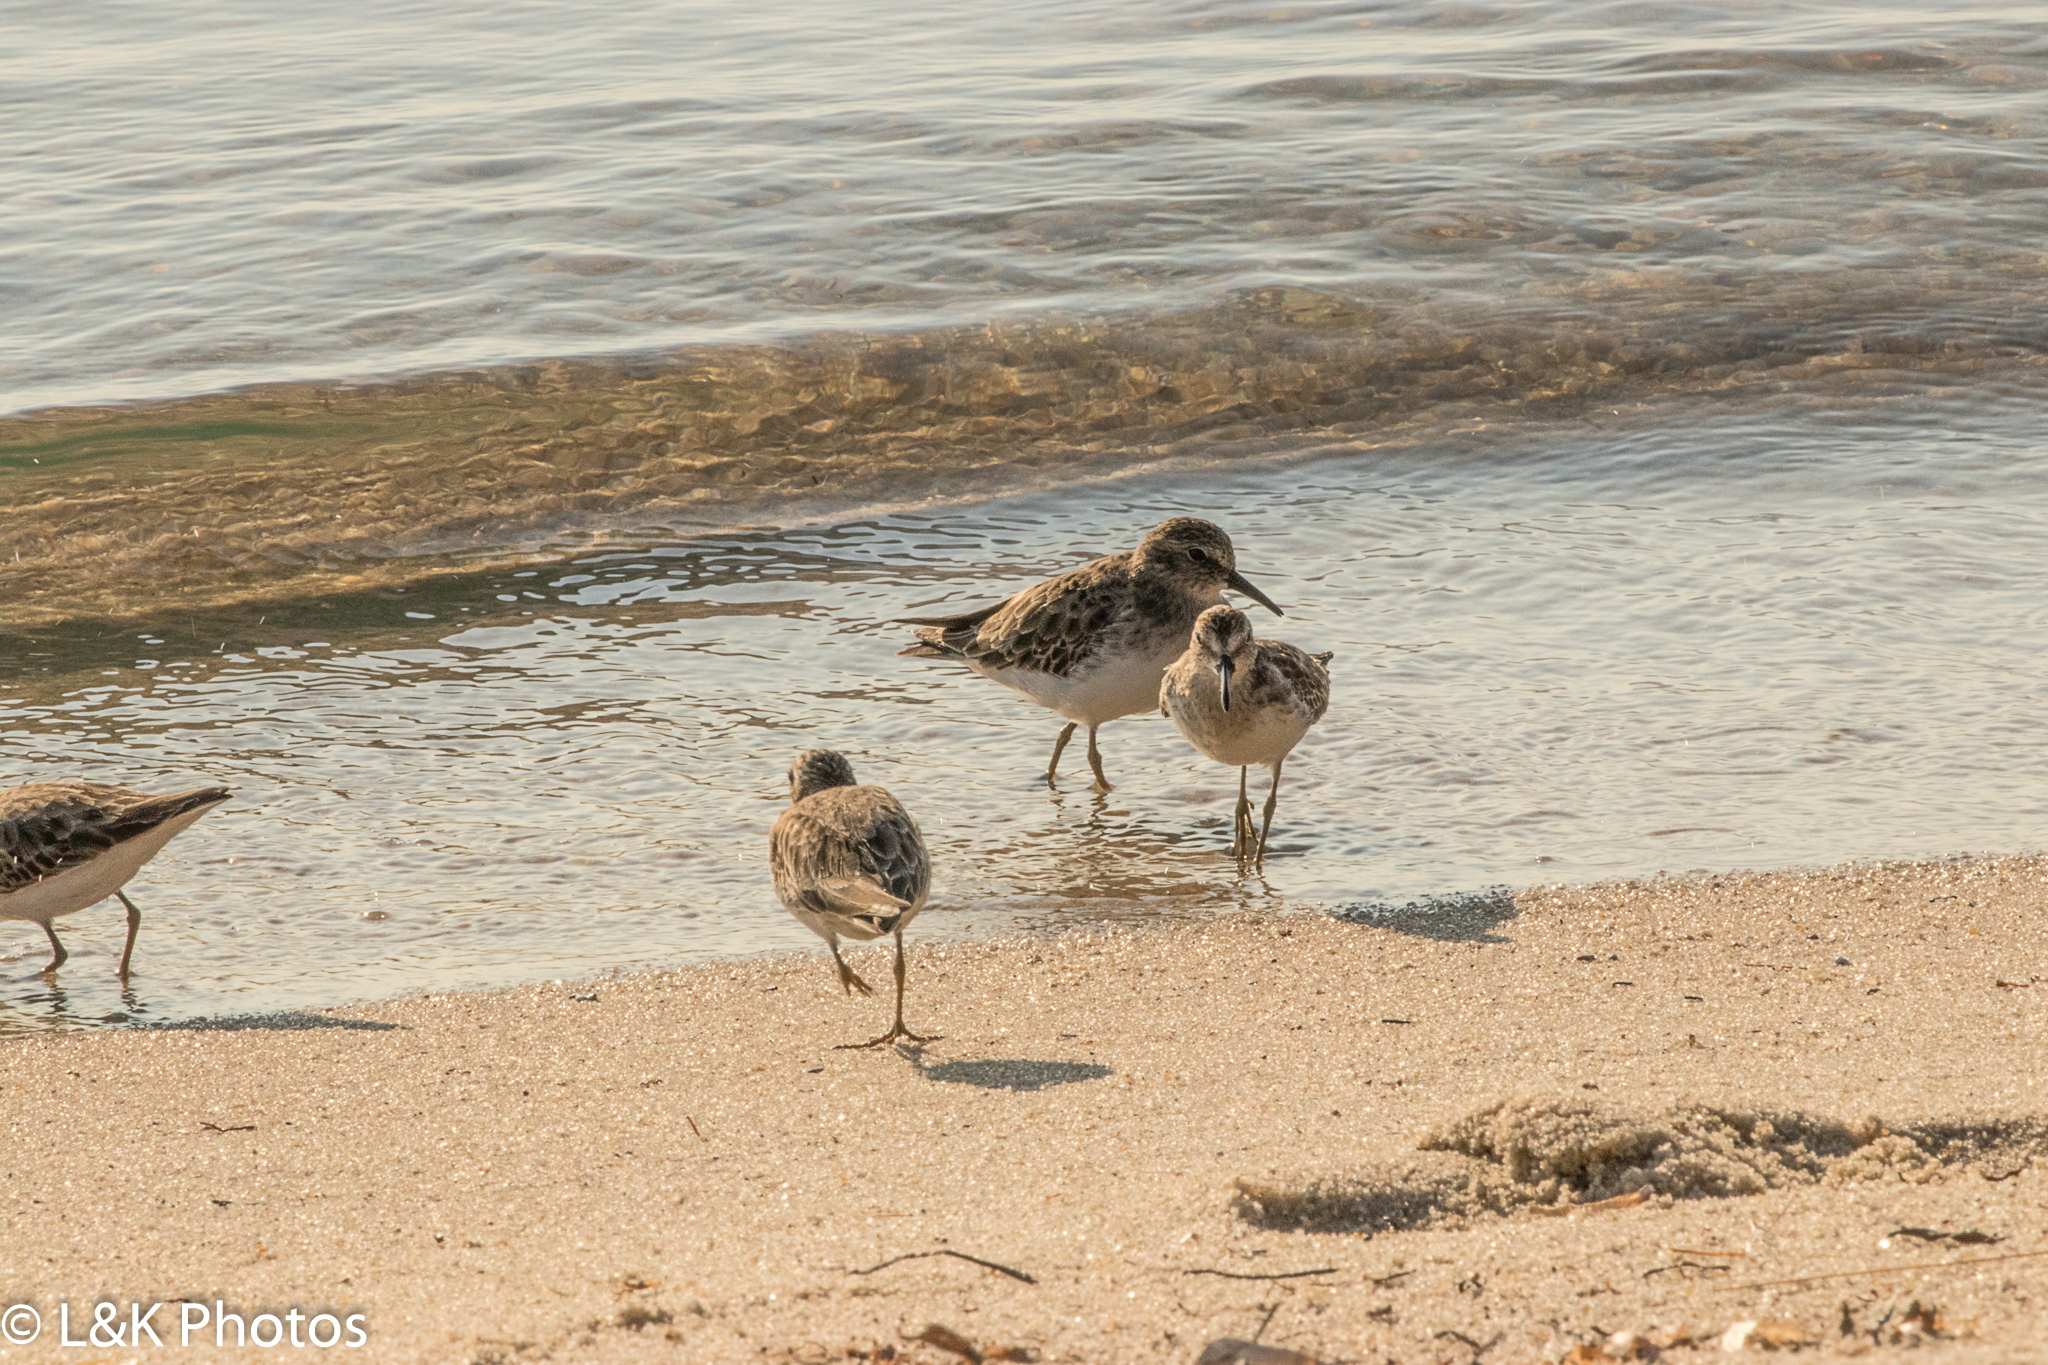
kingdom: Animalia
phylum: Chordata
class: Aves
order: Charadriiformes
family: Scolopacidae
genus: Calidris
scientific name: Calidris minutilla
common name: Least sandpiper
